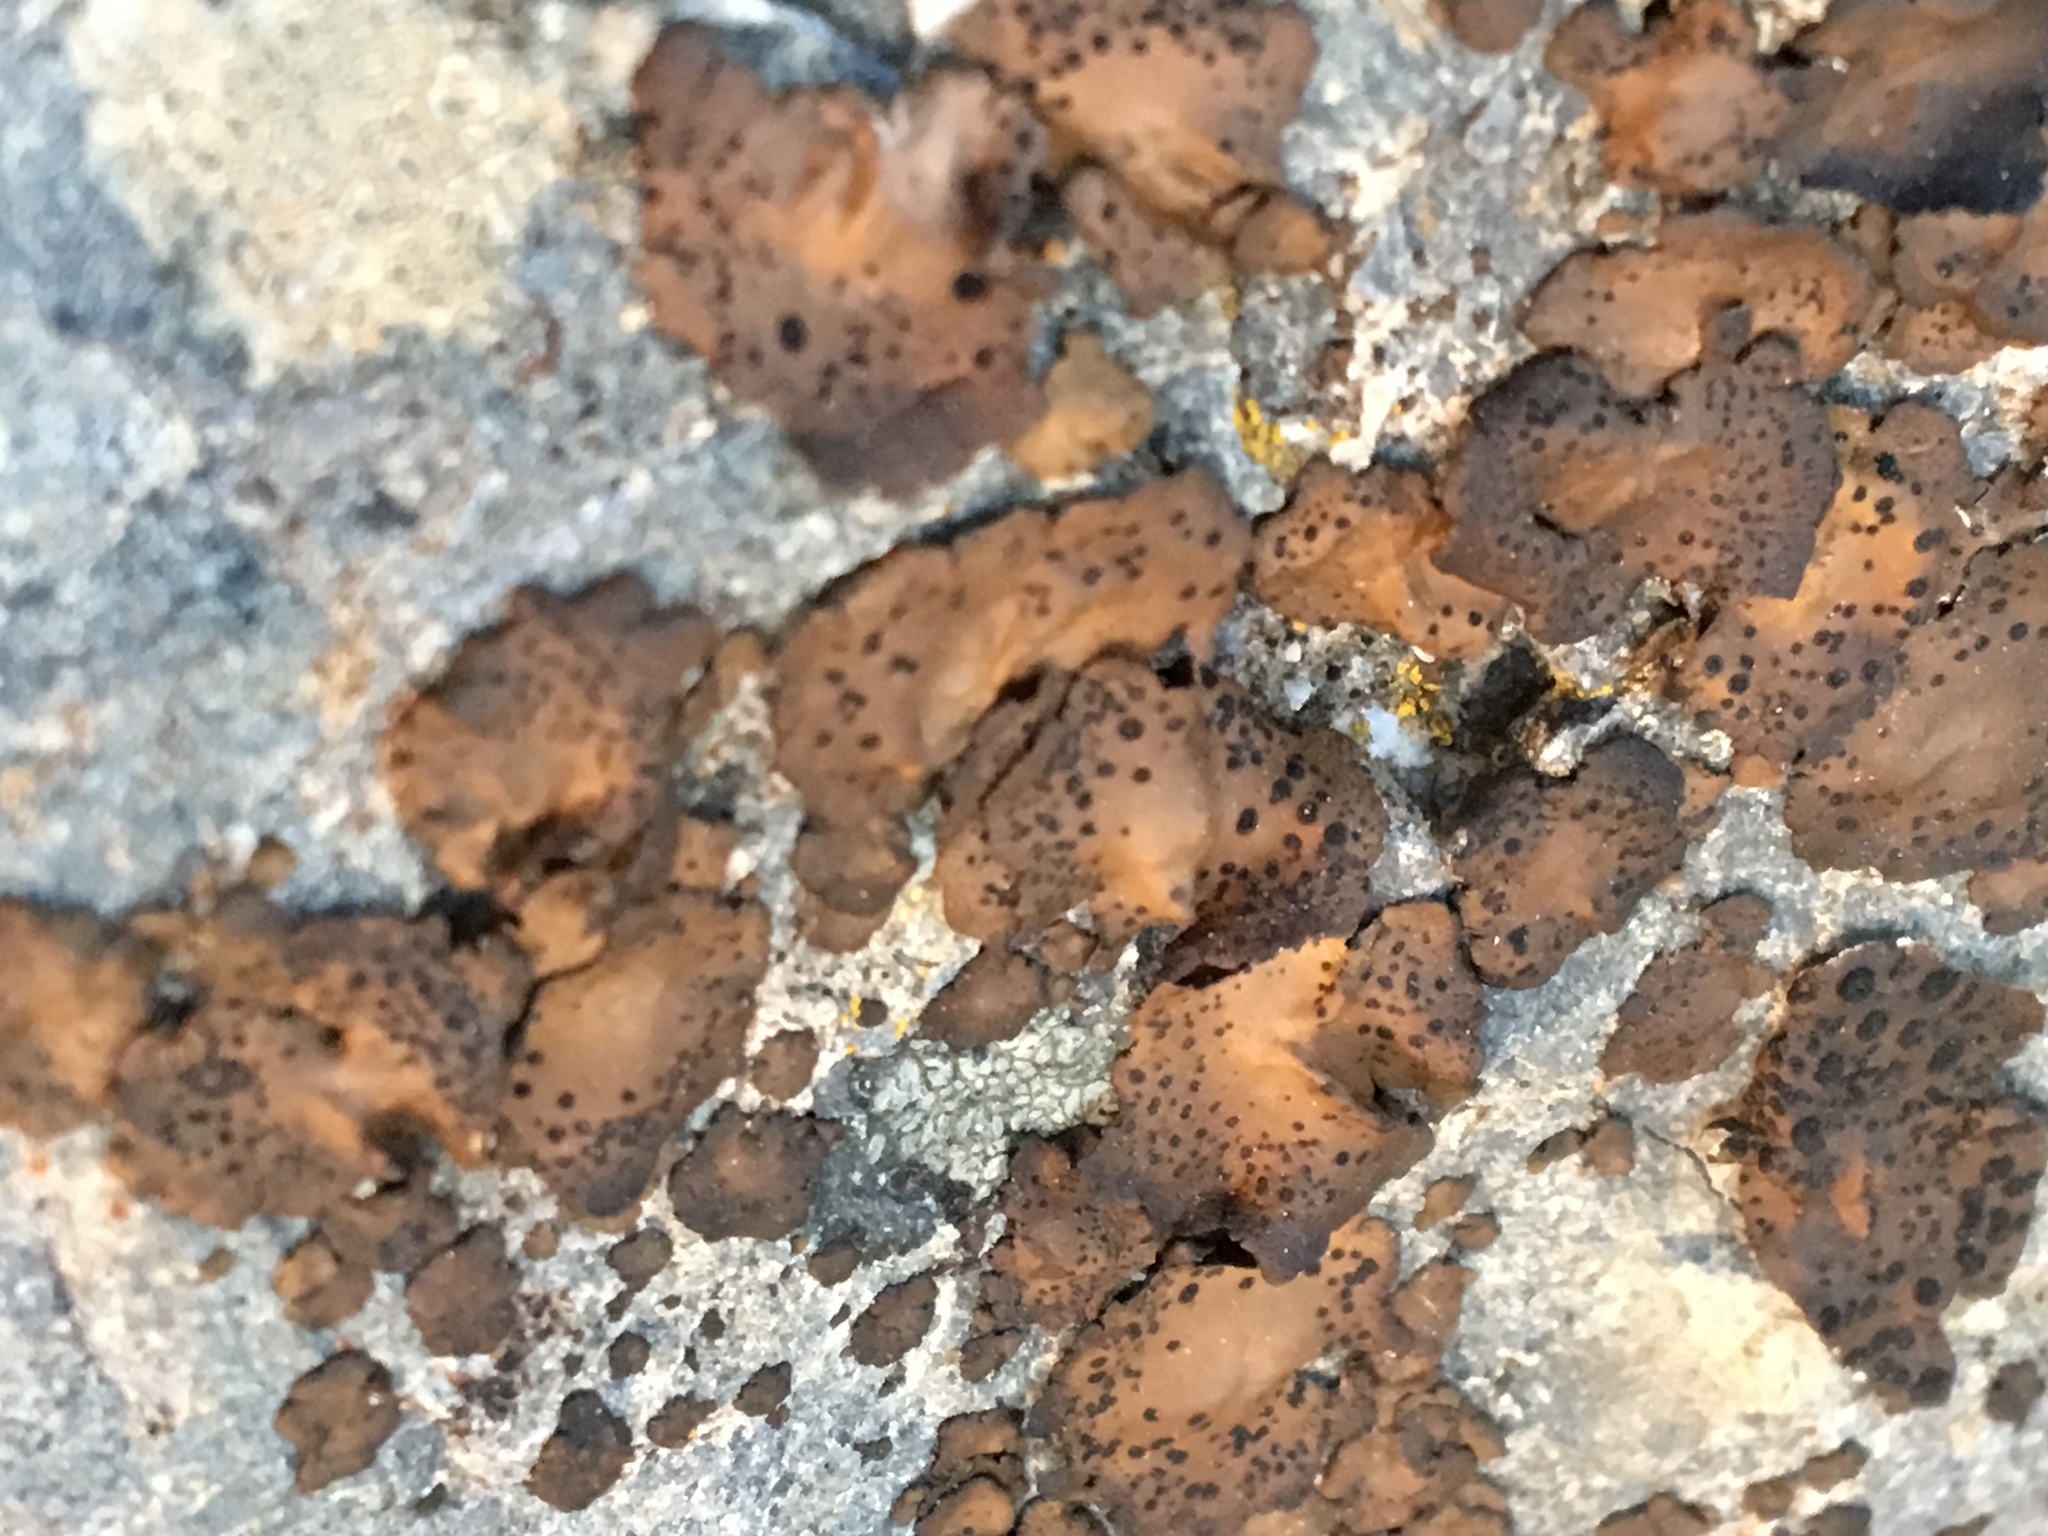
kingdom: Fungi
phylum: Ascomycota
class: Lecanoromycetes
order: Umbilicariales
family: Umbilicariaceae
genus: Umbilicaria
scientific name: Umbilicaria phaea
